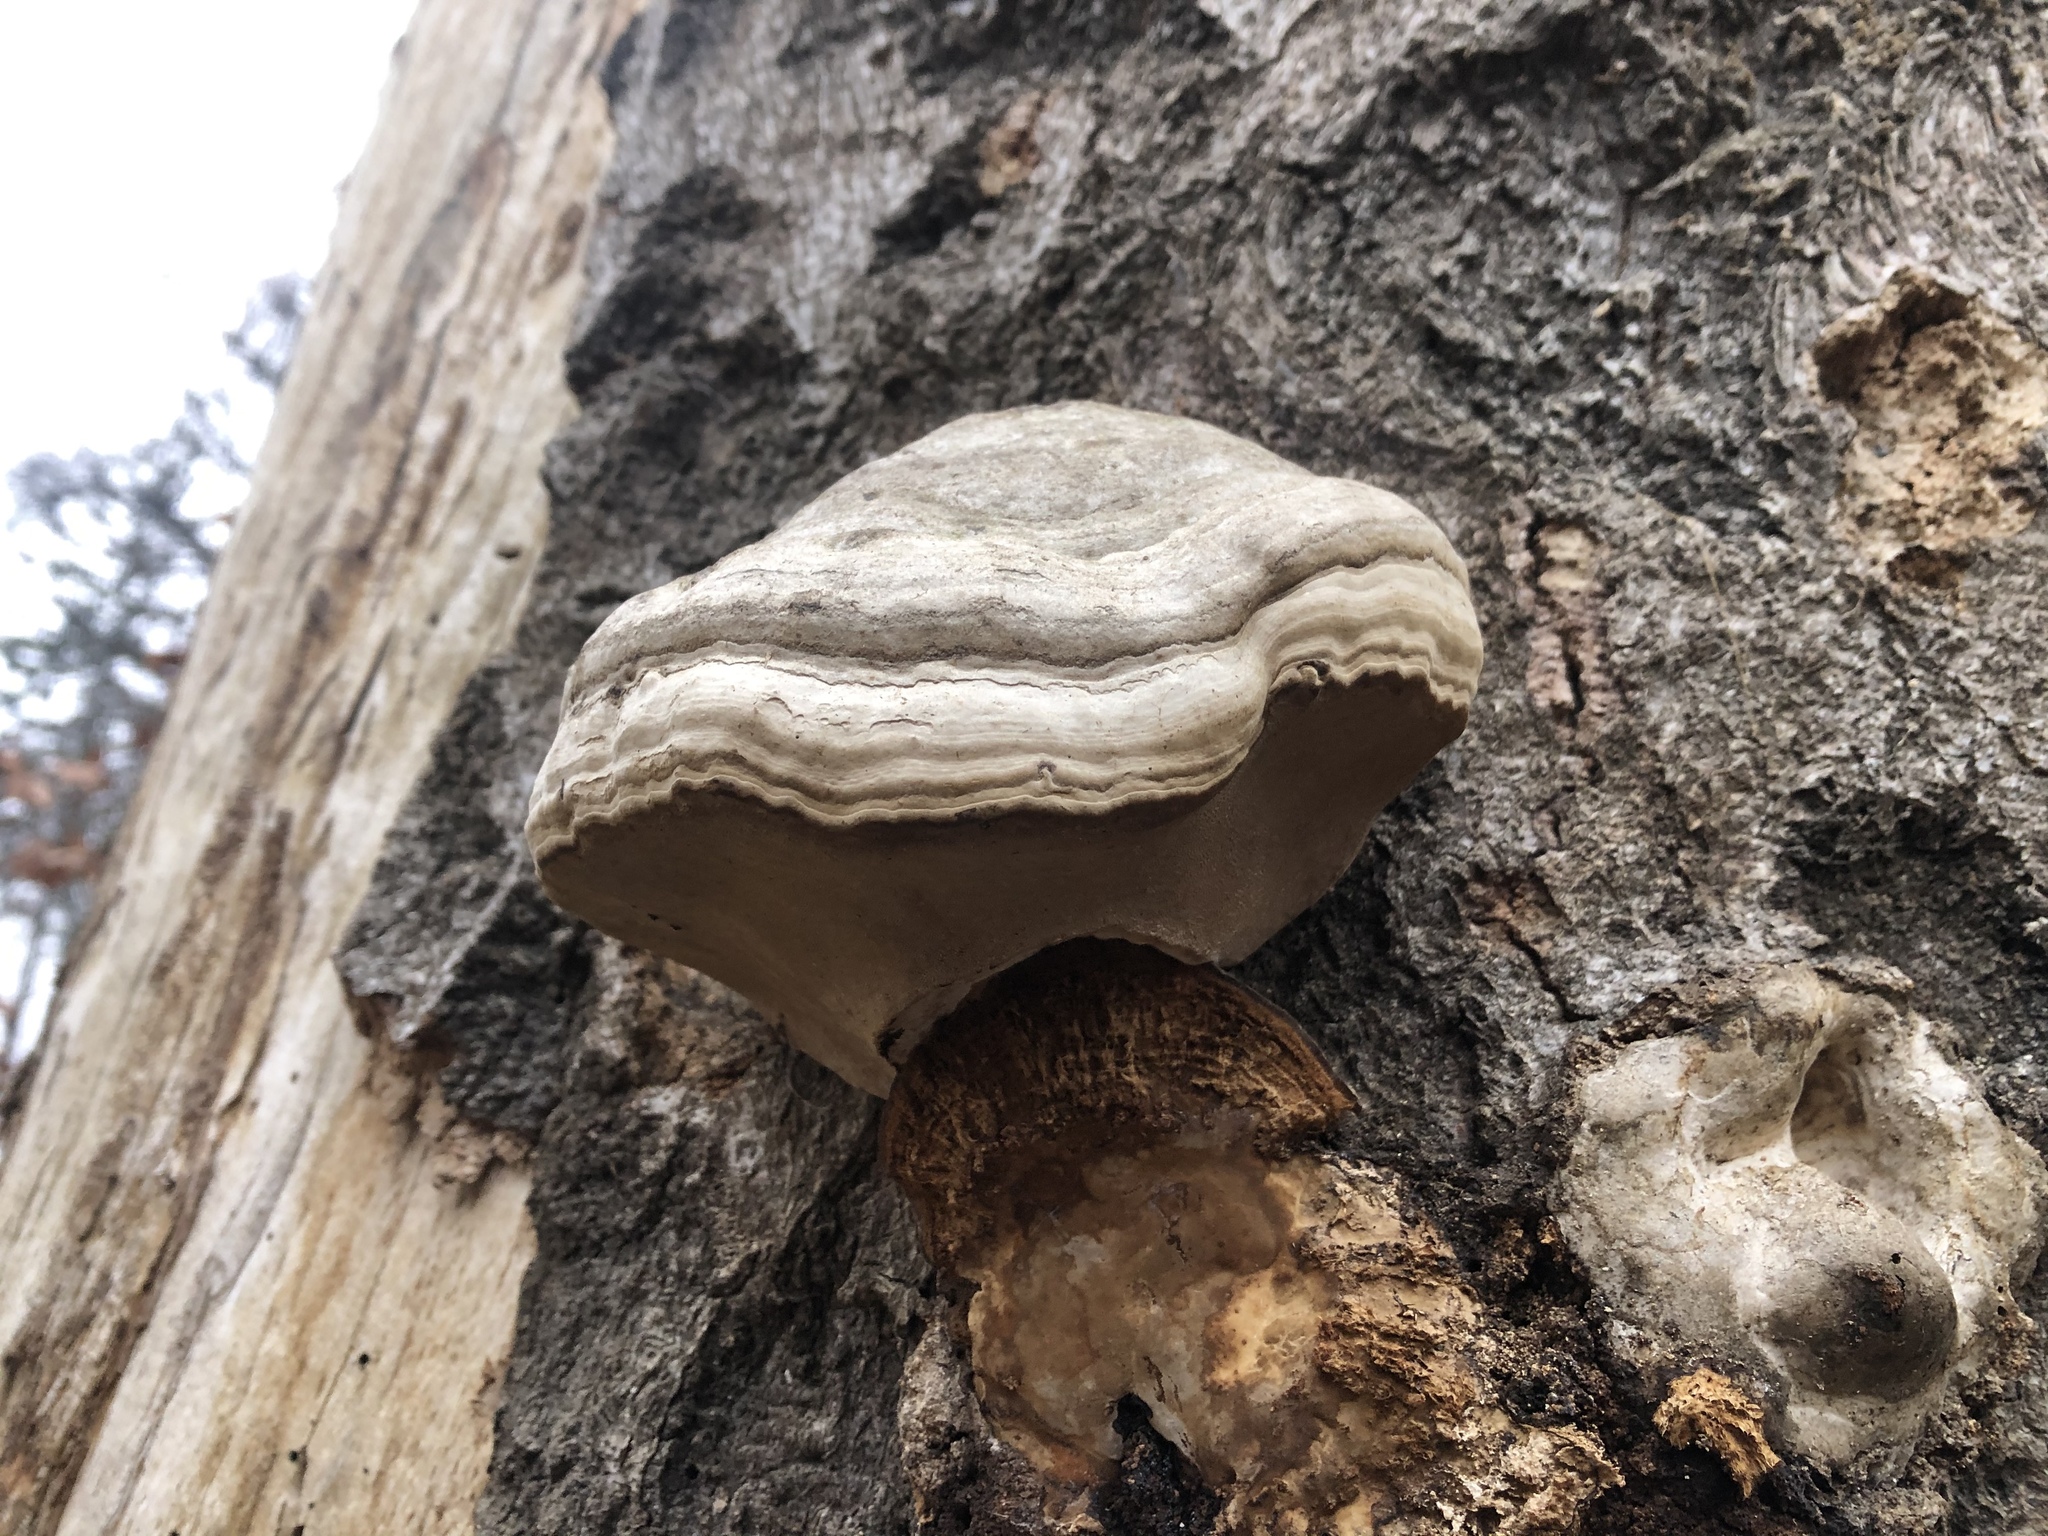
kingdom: Fungi
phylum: Basidiomycota
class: Agaricomycetes
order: Polyporales
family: Polyporaceae
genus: Fomes
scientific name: Fomes fomentarius
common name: Hoof fungus
